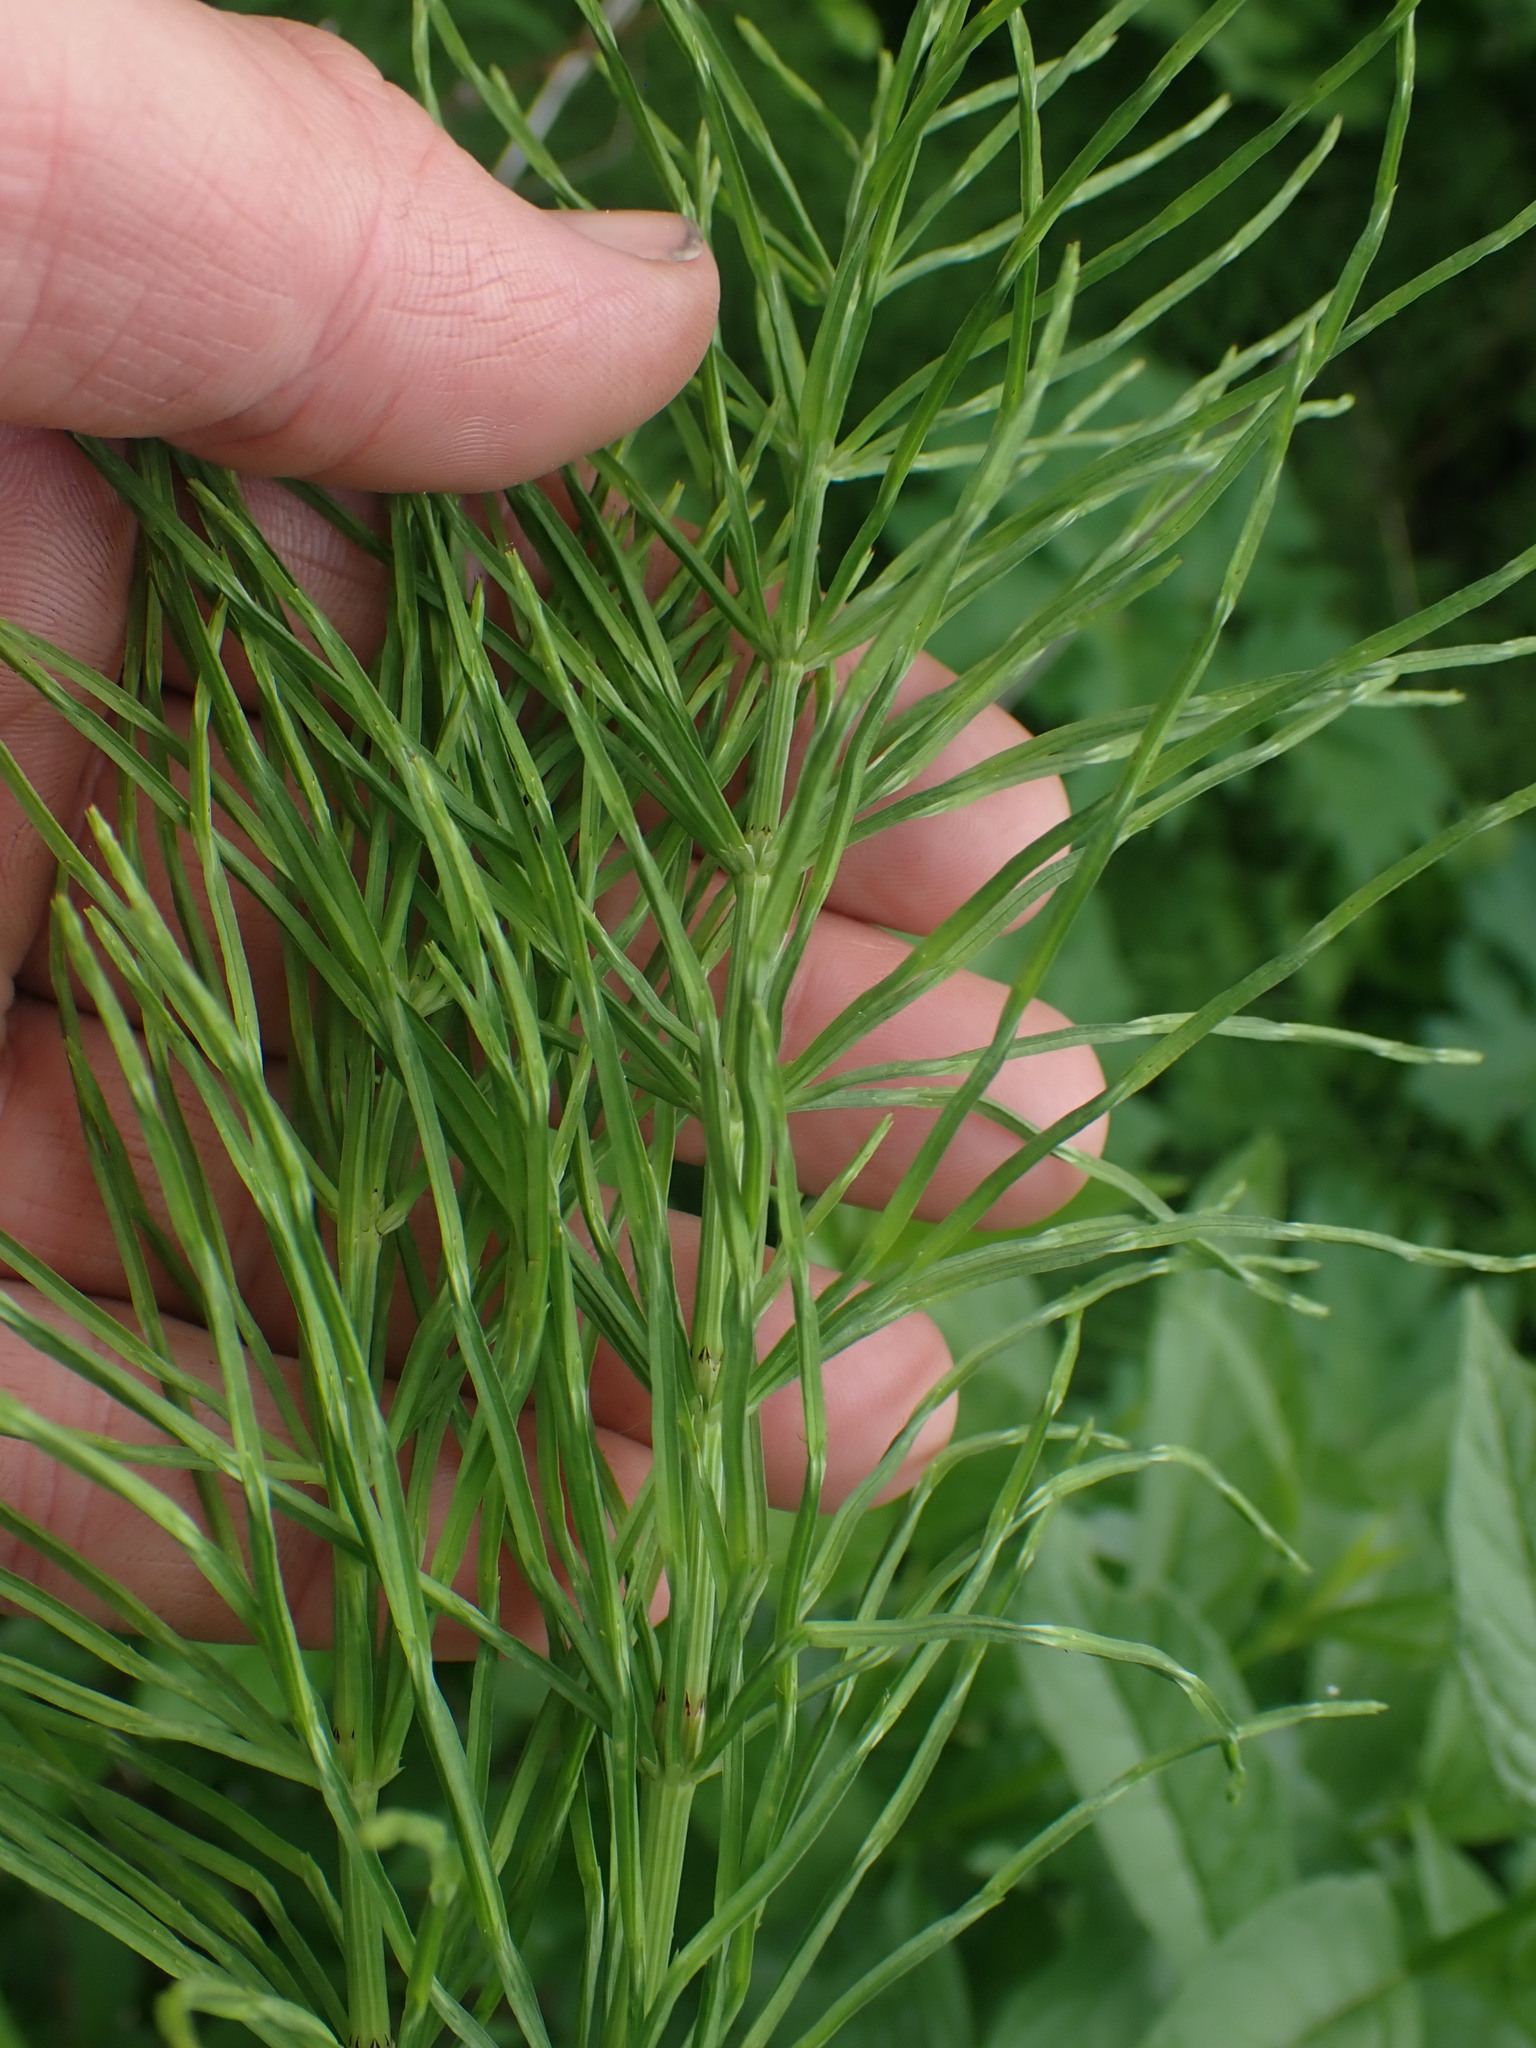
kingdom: Plantae
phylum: Tracheophyta
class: Polypodiopsida
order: Equisetales
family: Equisetaceae
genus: Equisetum
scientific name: Equisetum arvense
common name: Field horsetail
